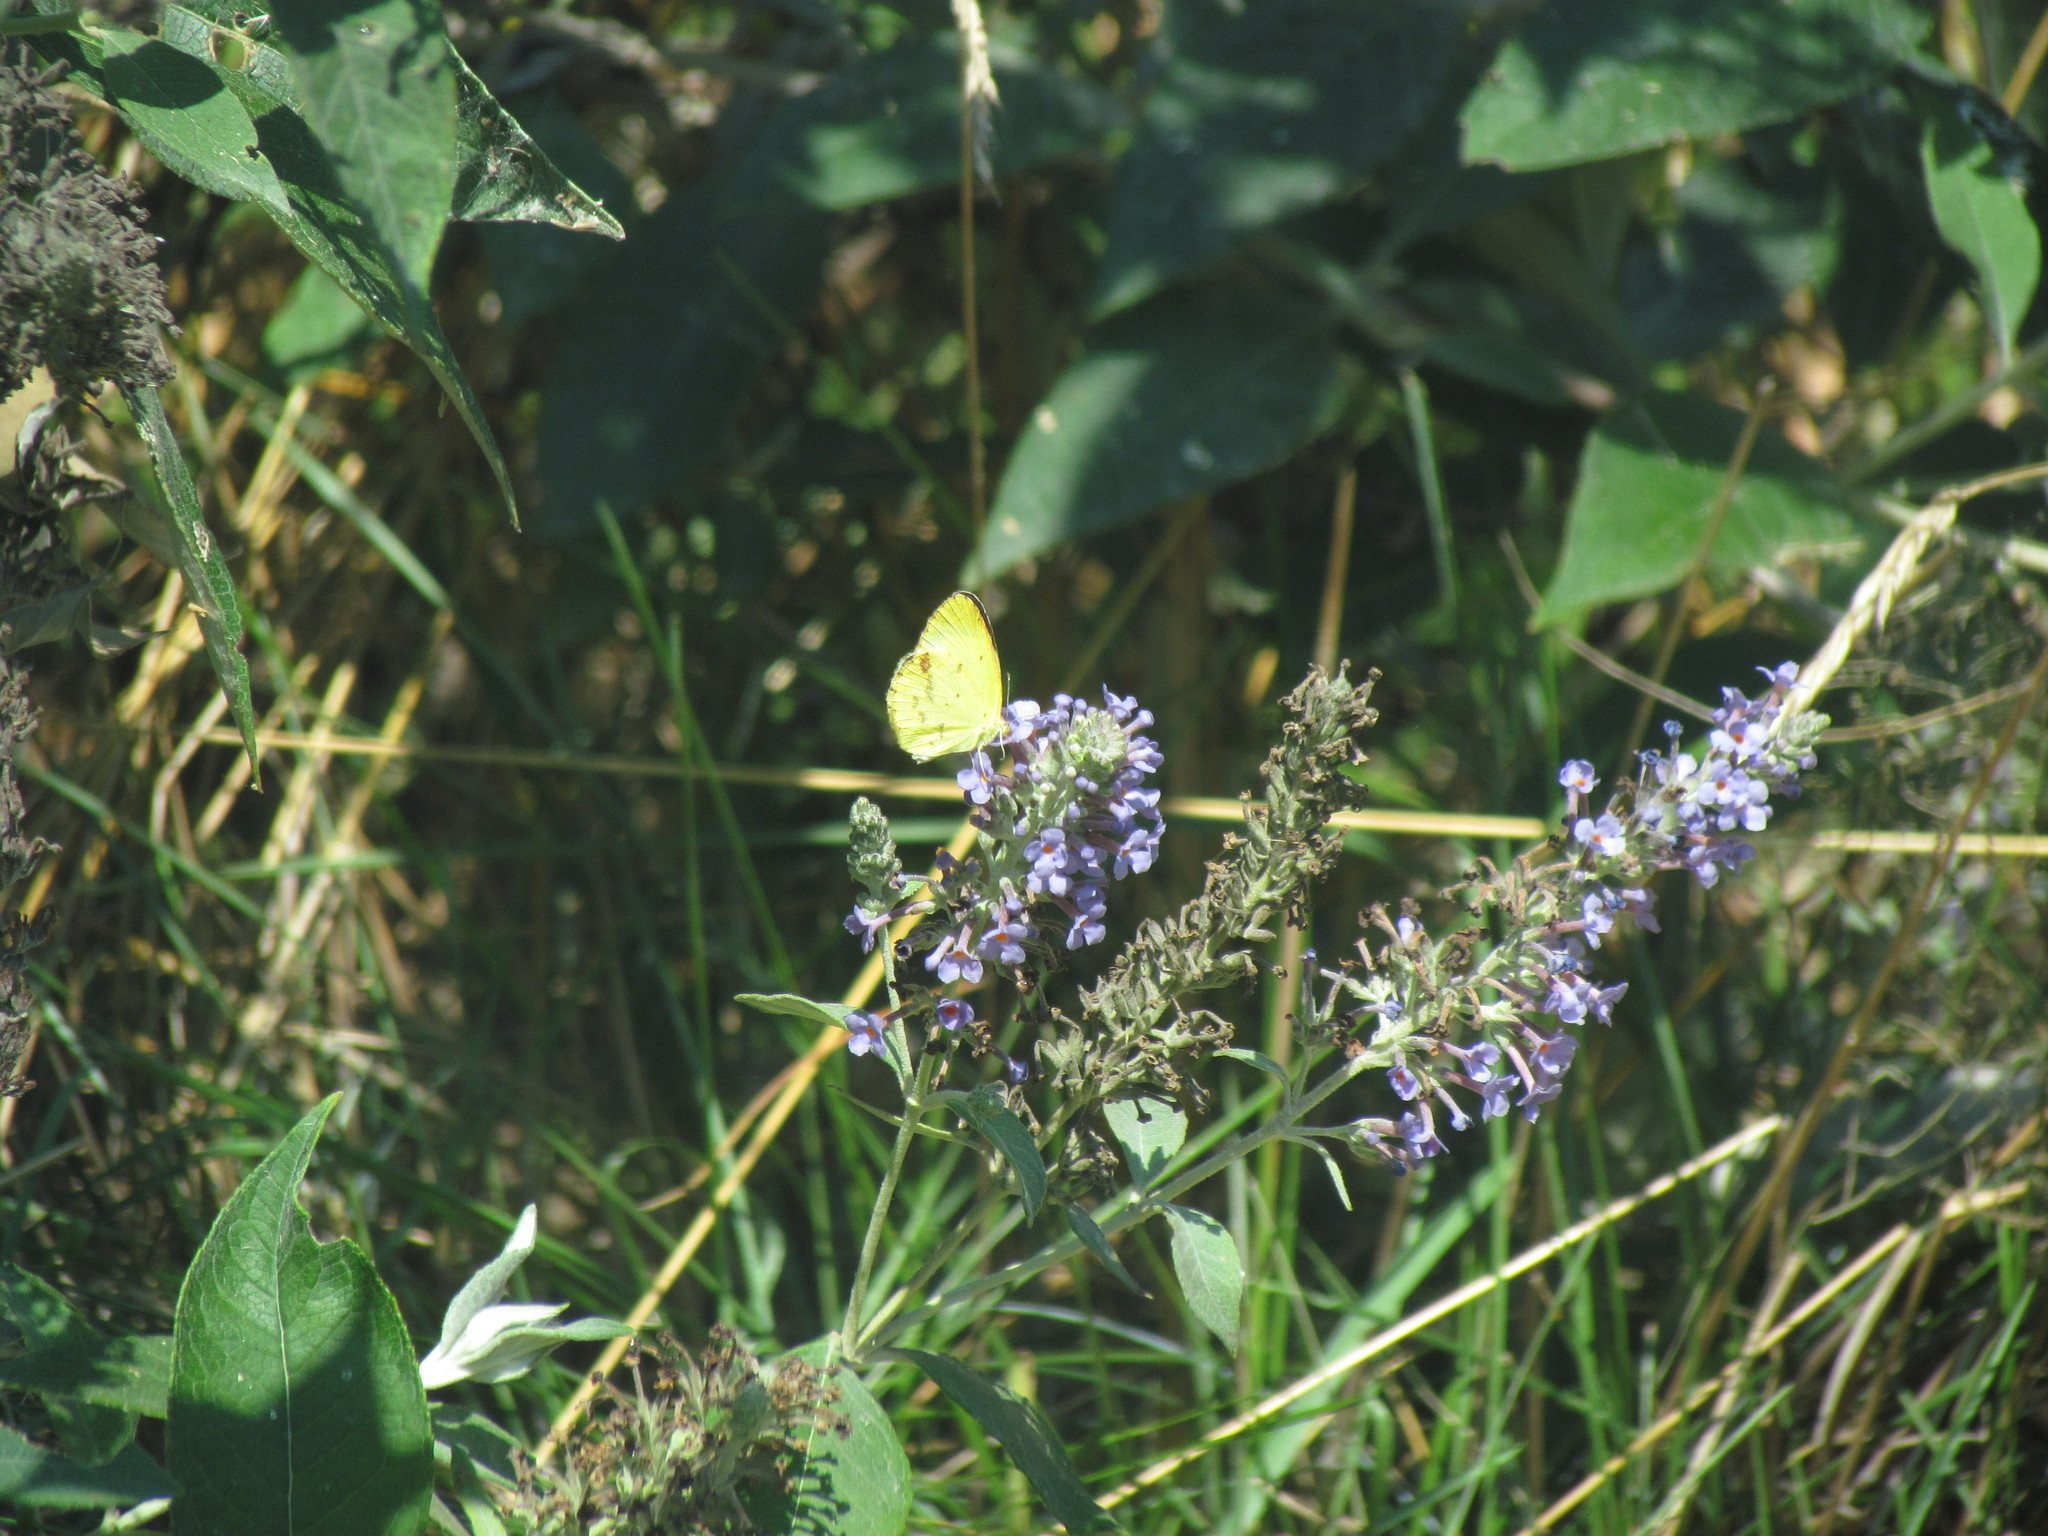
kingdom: Animalia
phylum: Arthropoda
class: Insecta
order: Lepidoptera
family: Pieridae
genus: Pyrisitia
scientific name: Pyrisitia lisa
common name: Little yellow
